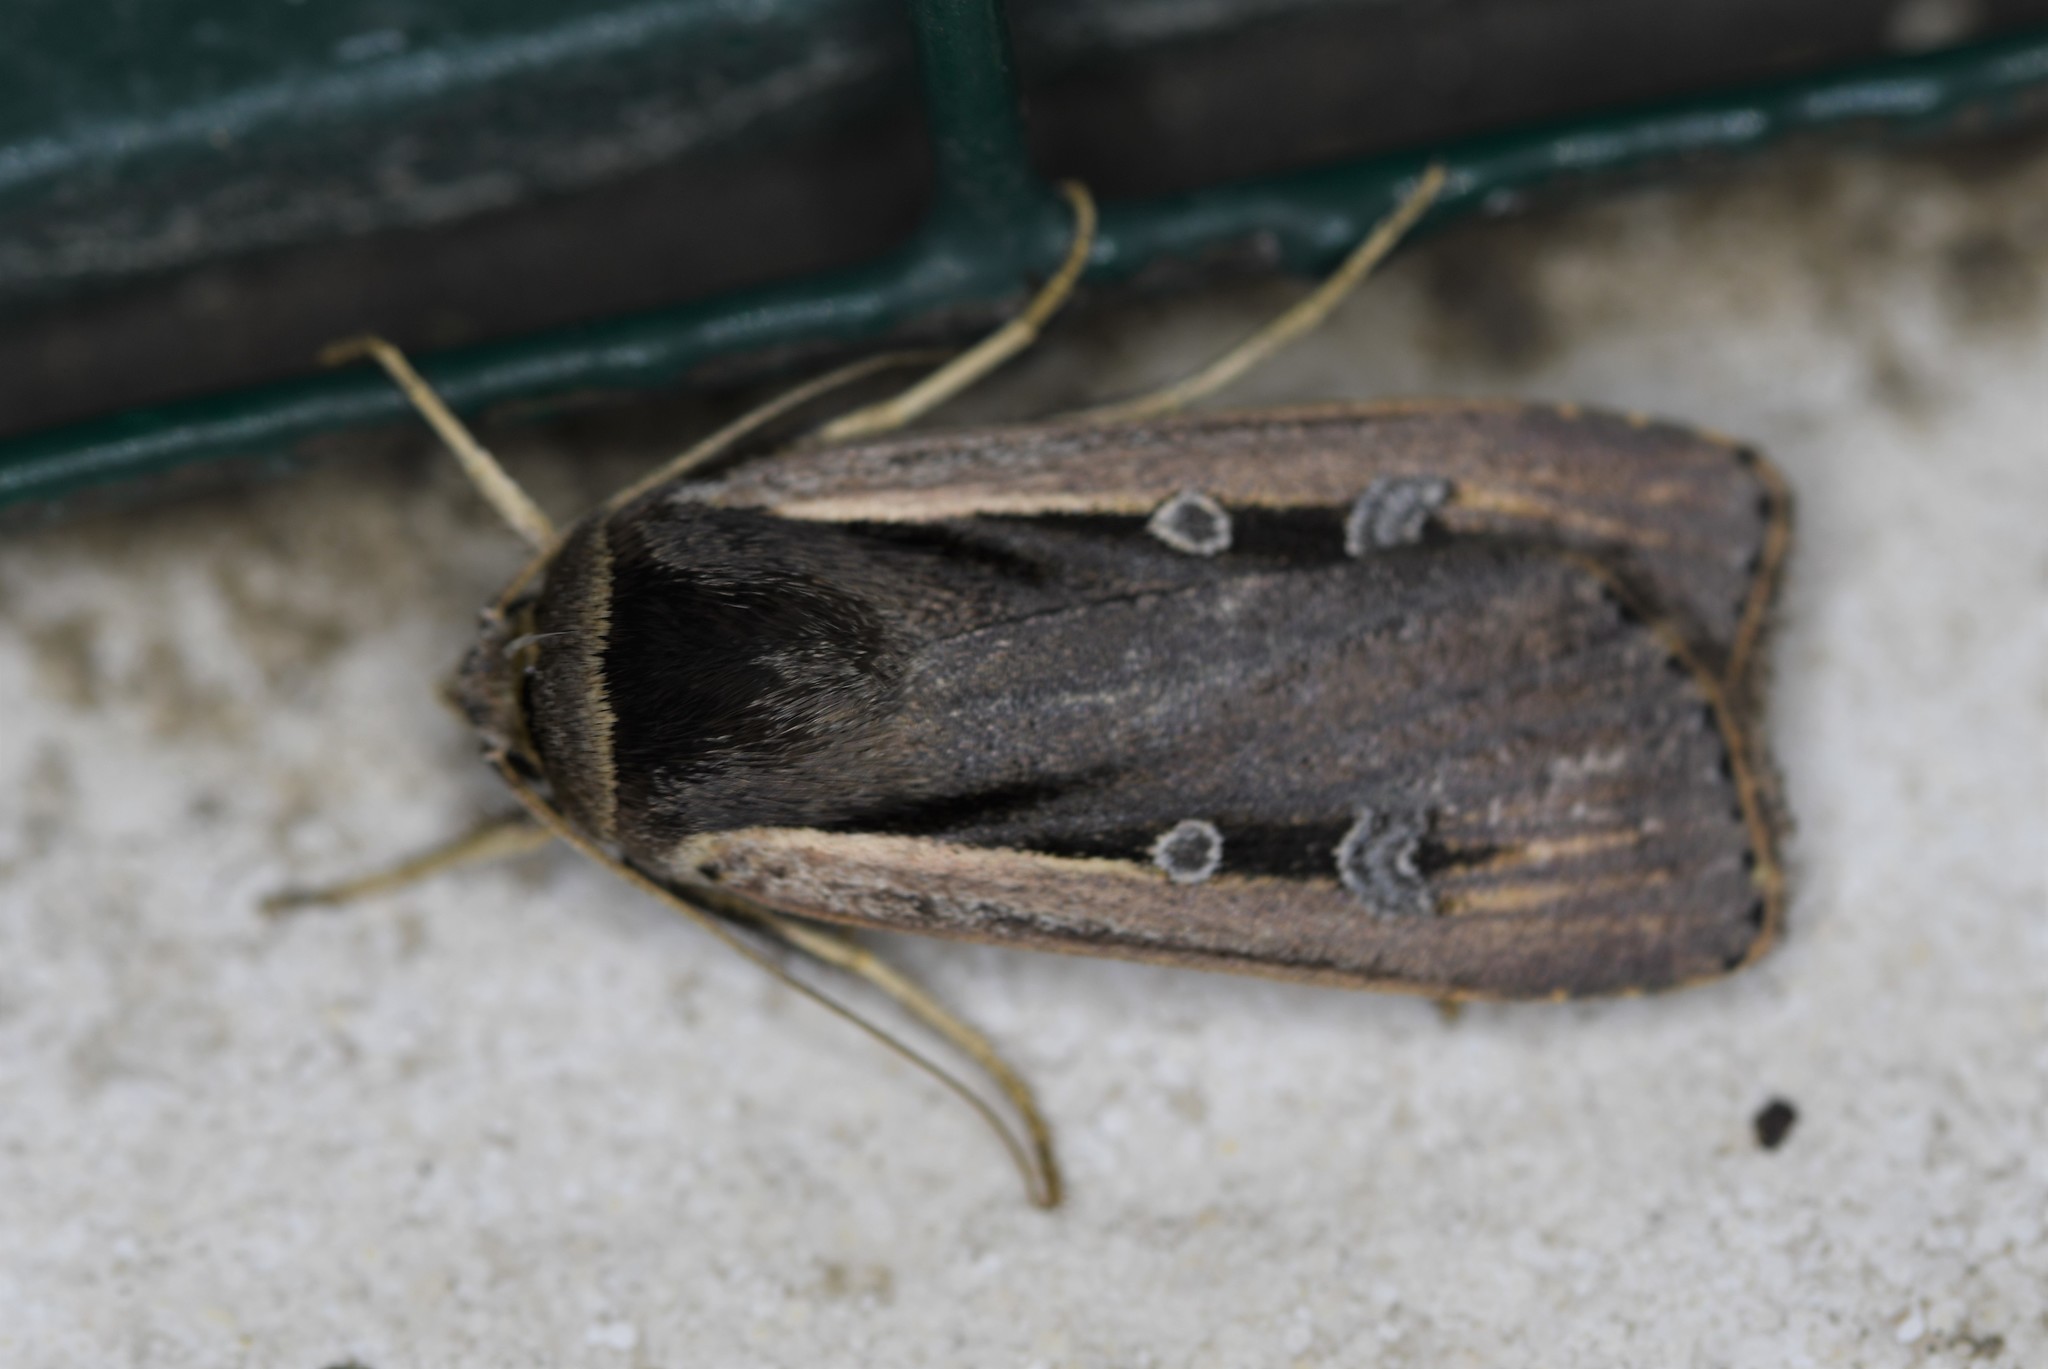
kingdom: Animalia
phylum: Arthropoda
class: Insecta
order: Lepidoptera
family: Noctuidae
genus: Ochropleura
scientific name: Ochropleura leucogaster
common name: Radford's flame shoulder
